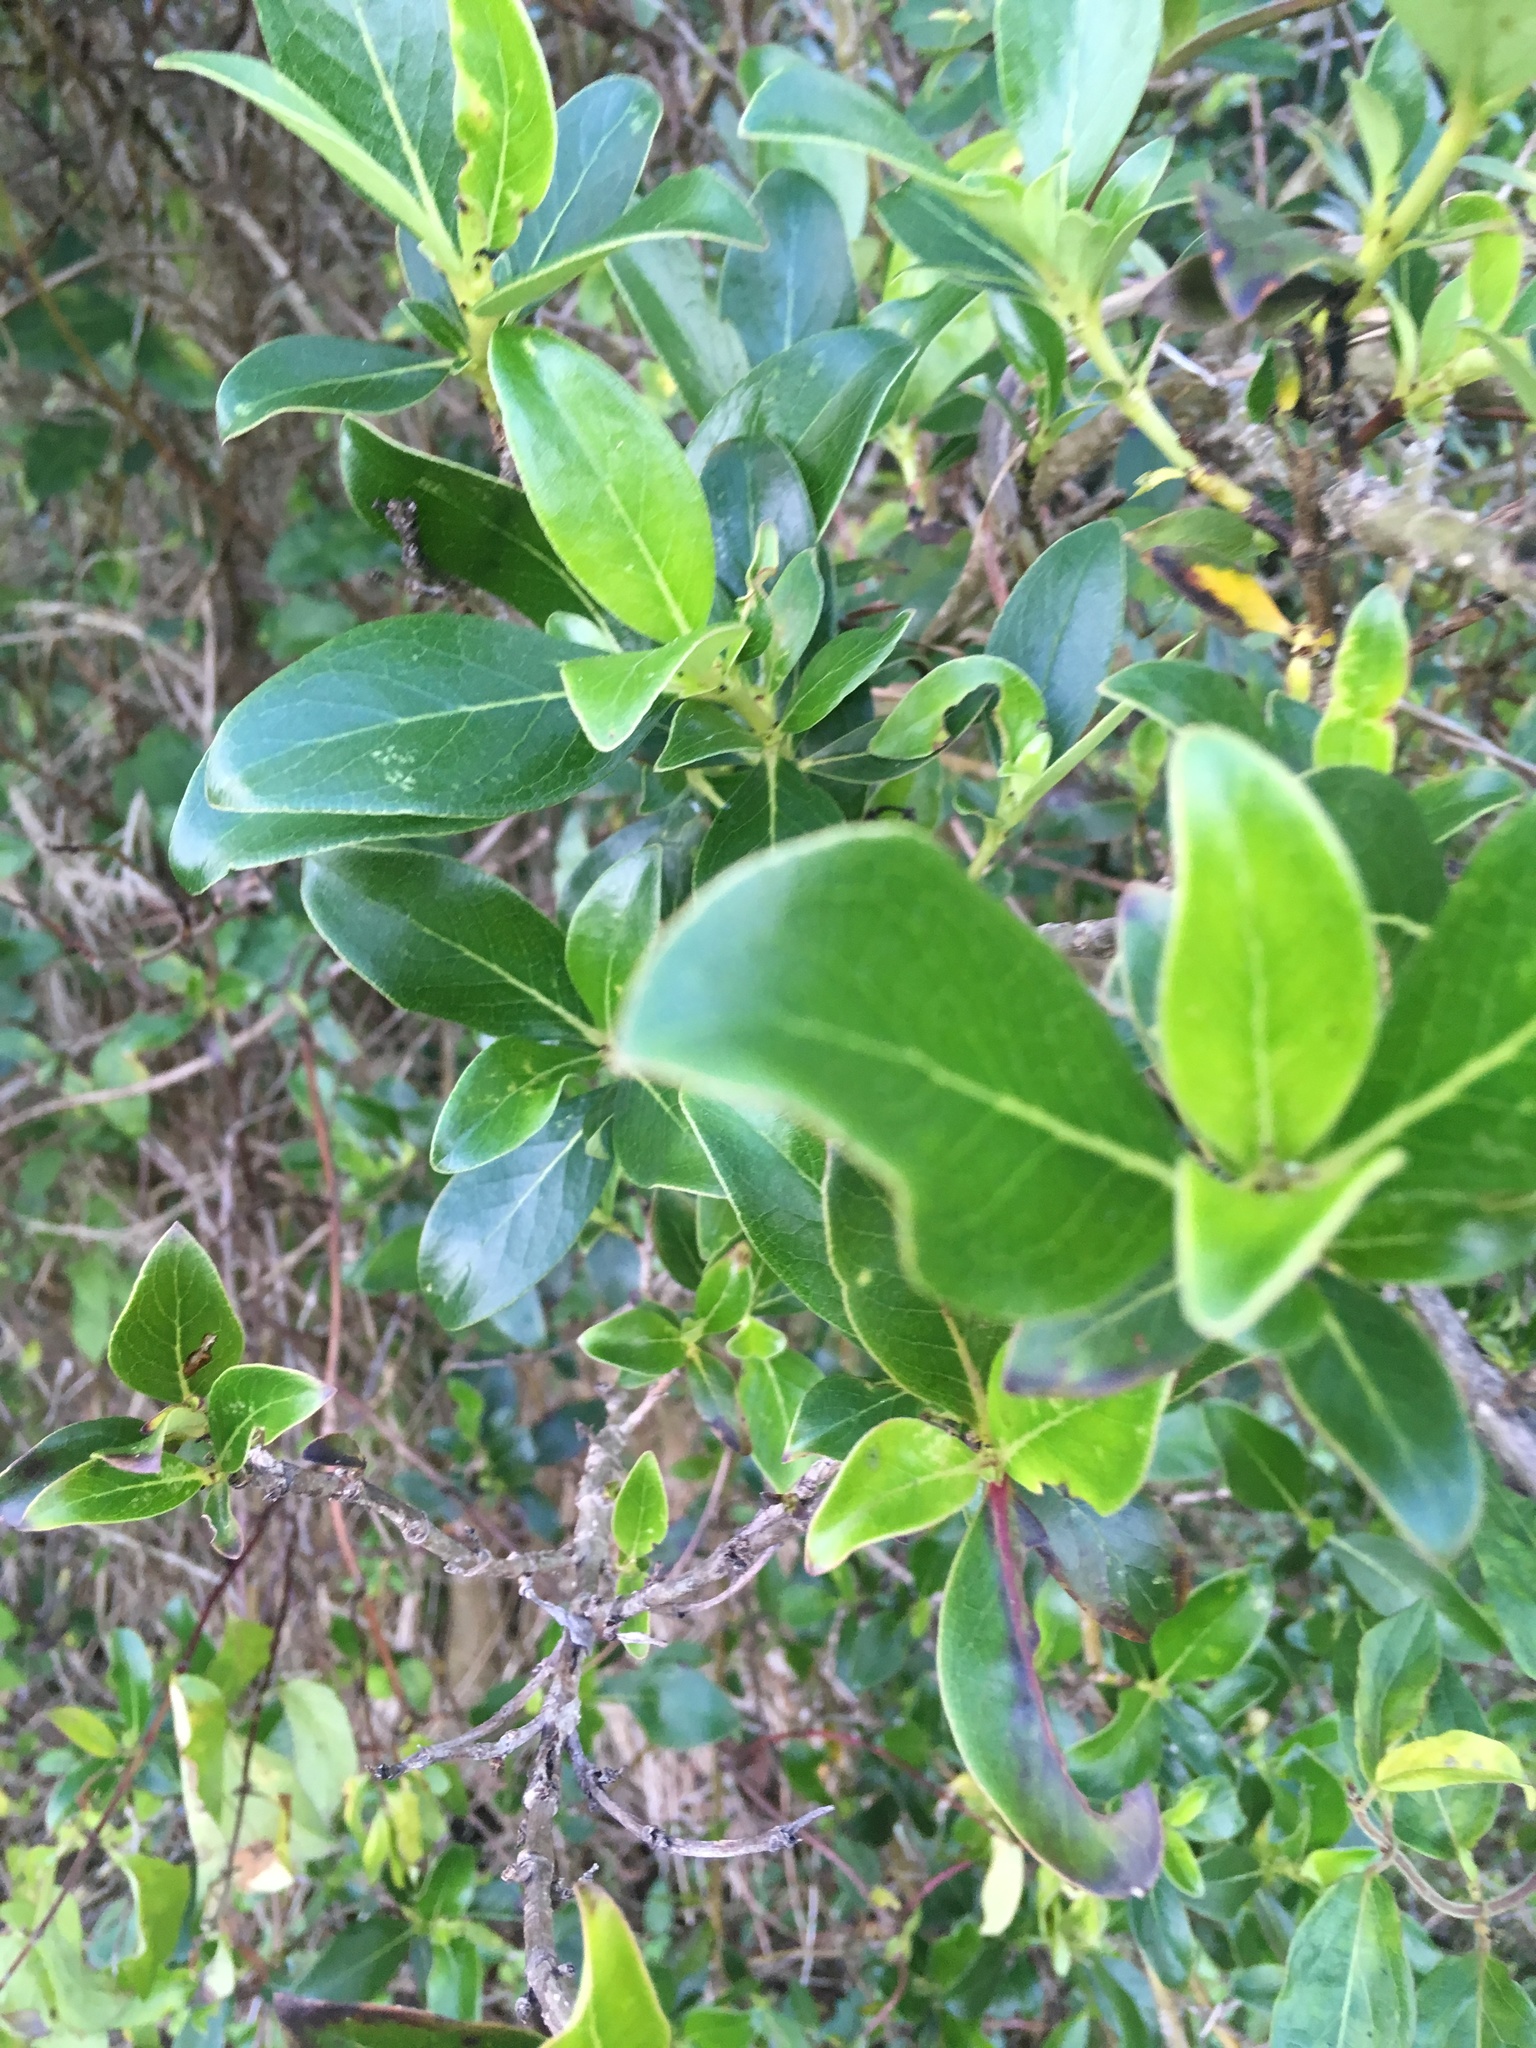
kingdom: Plantae
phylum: Tracheophyta
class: Magnoliopsida
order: Gentianales
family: Rubiaceae
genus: Coprosma
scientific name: Coprosma robusta
